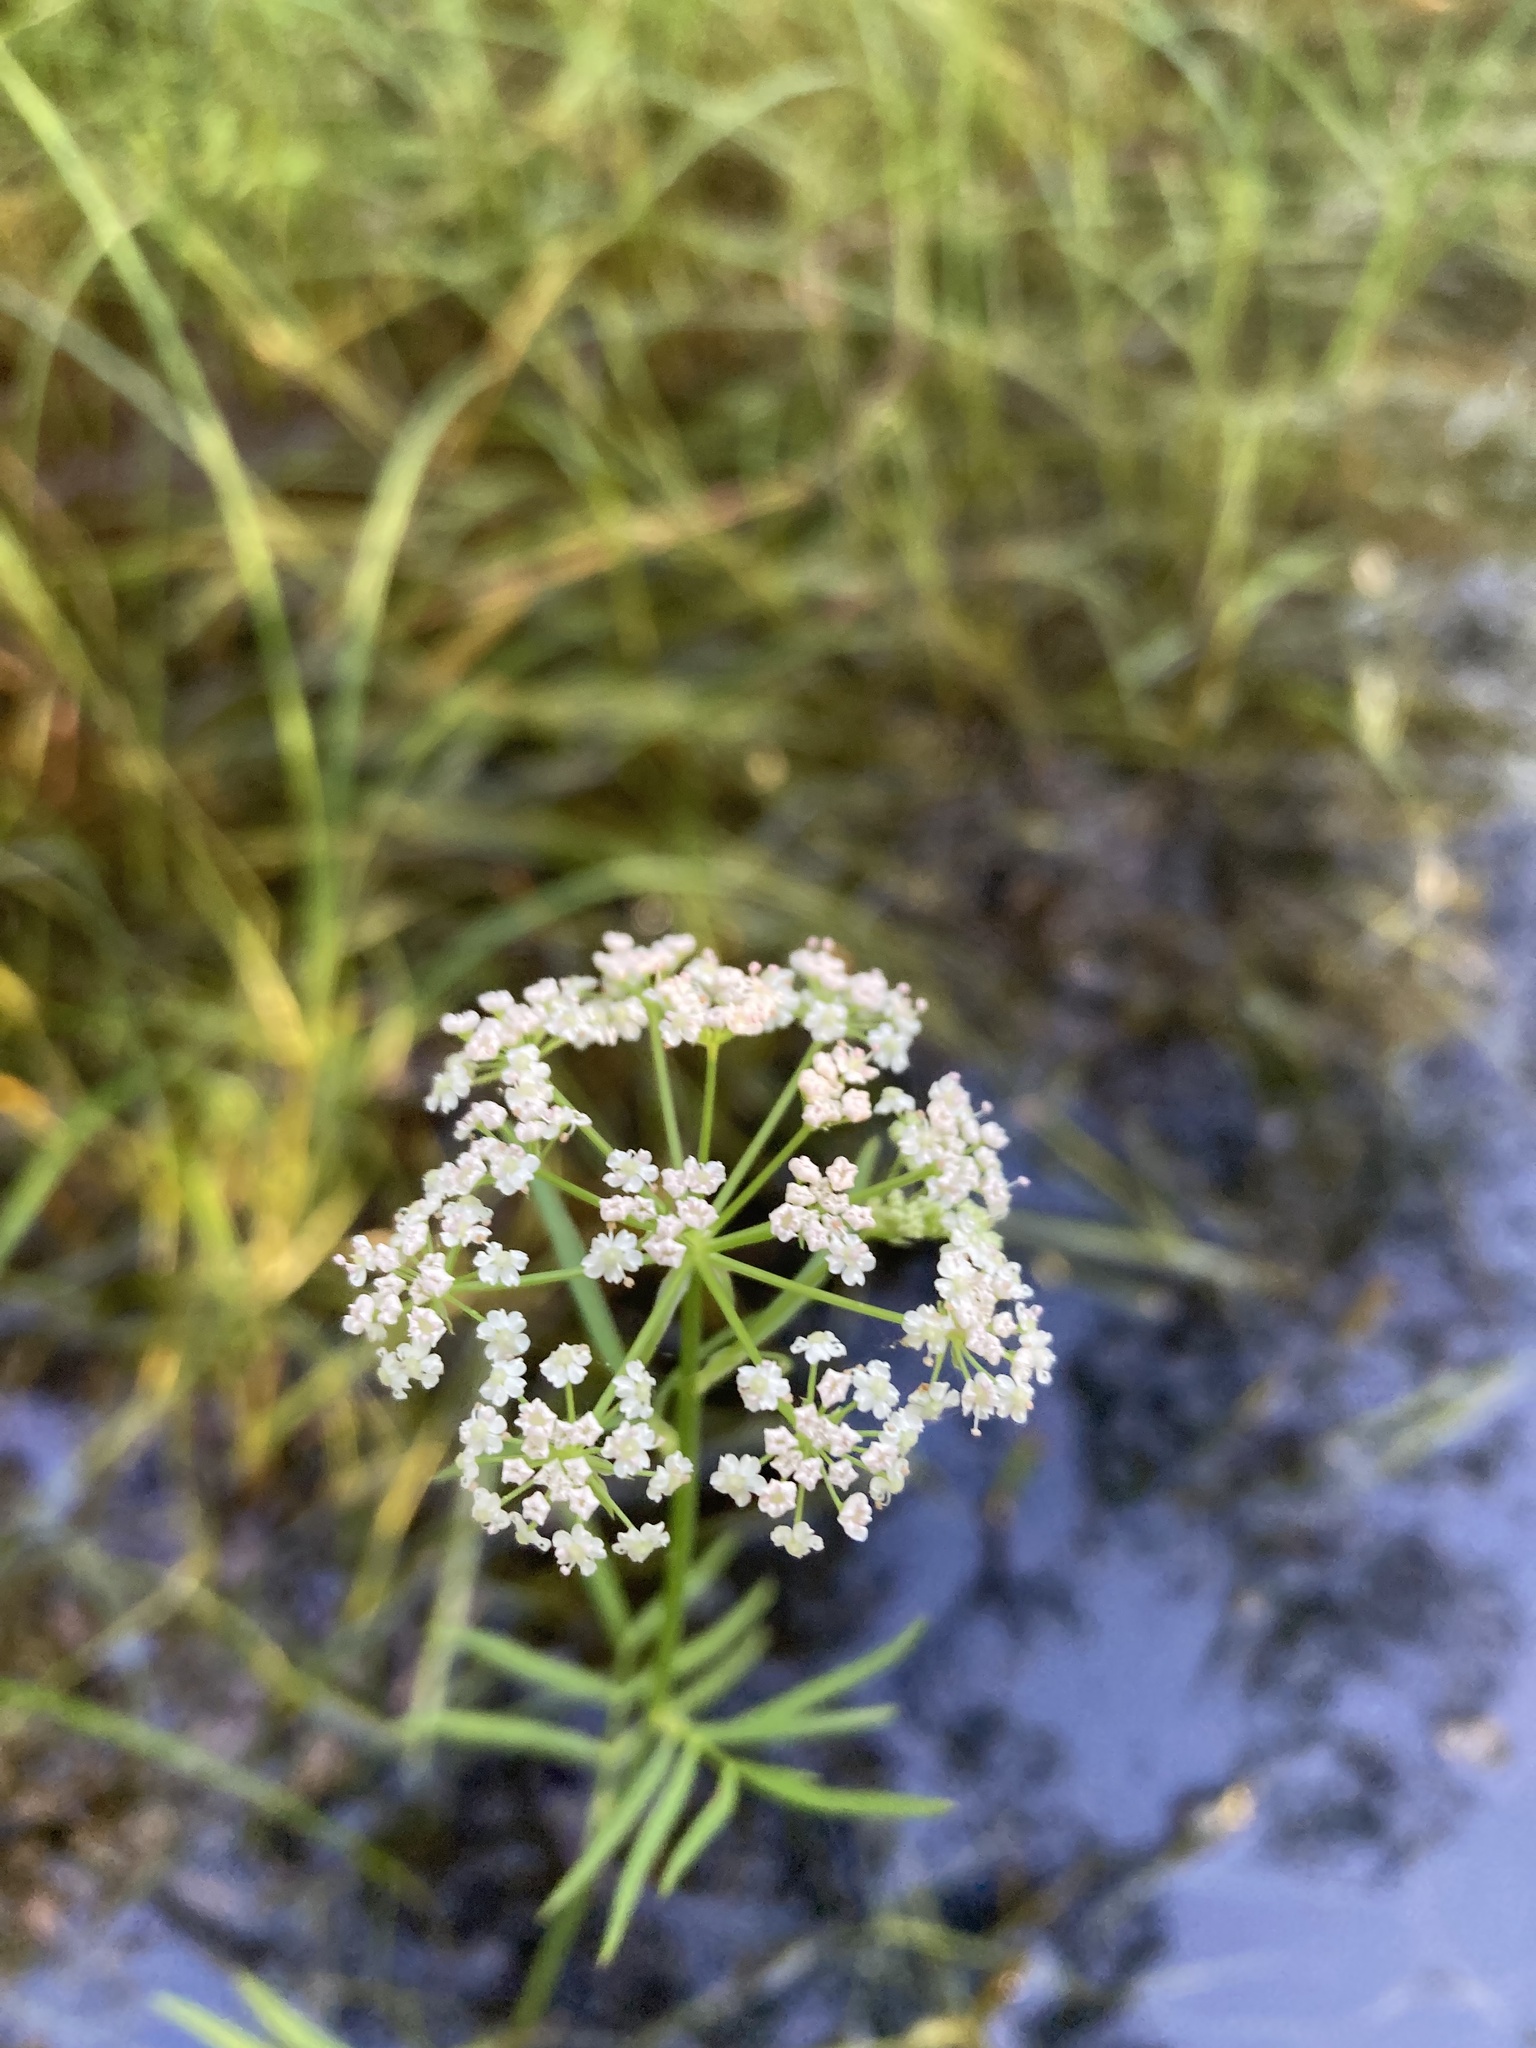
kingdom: Plantae
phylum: Tracheophyta
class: Magnoliopsida
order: Apiales
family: Apiaceae
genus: Sium
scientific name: Sium suave
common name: Hemlock water-parsnip
